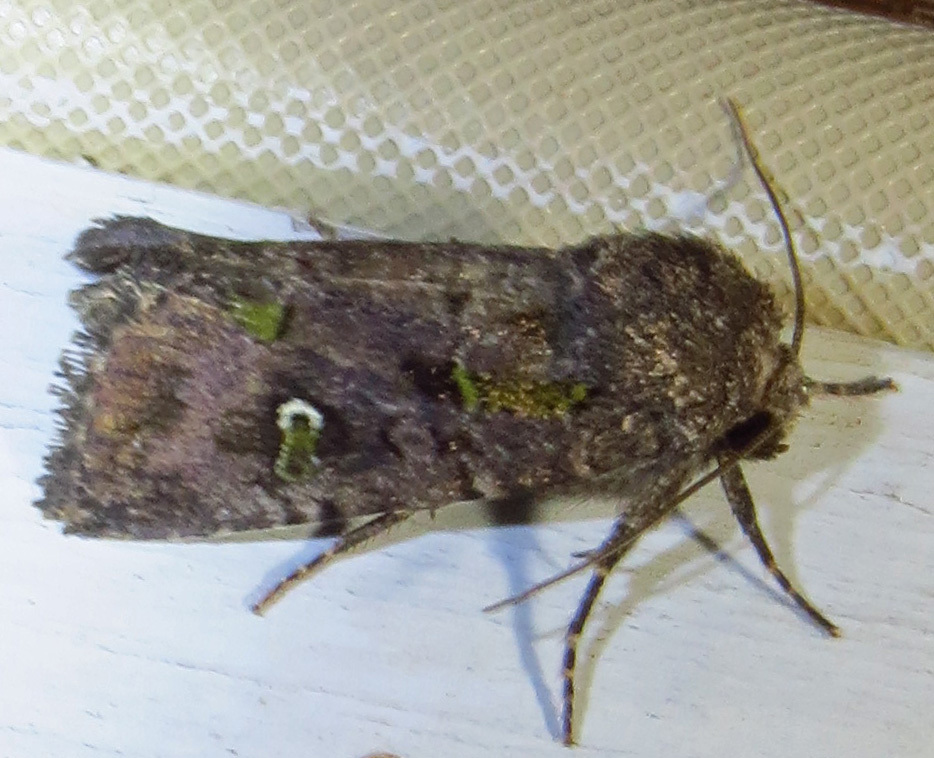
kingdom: Animalia
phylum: Arthropoda
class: Insecta
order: Lepidoptera
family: Noctuidae
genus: Lacinipolia
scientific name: Lacinipolia renigera
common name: Kidney-spotted minor
